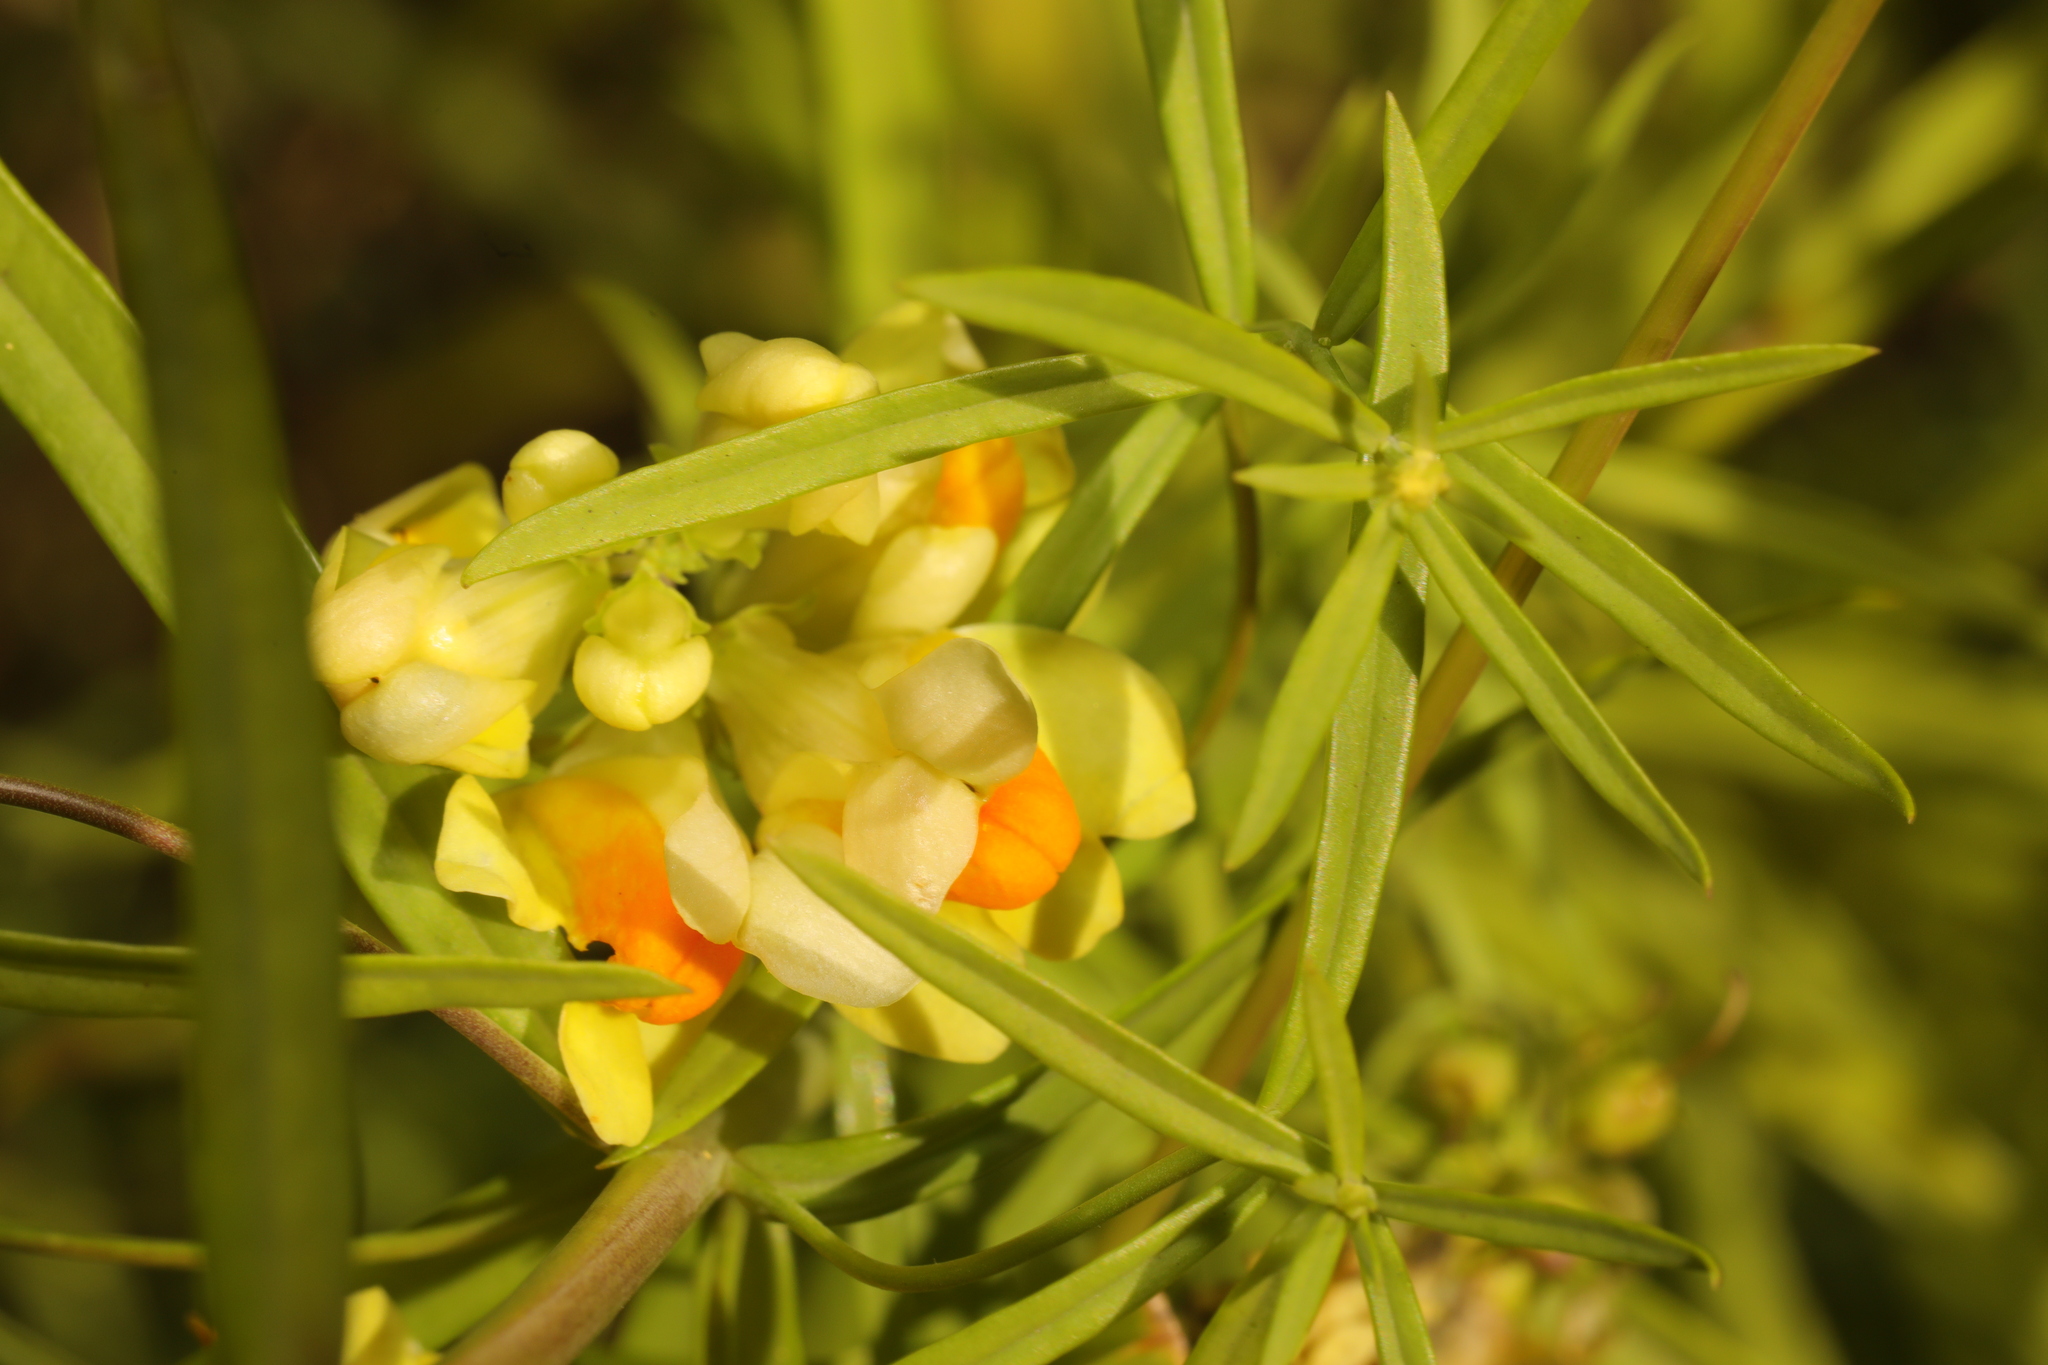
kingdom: Plantae
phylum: Tracheophyta
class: Magnoliopsida
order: Lamiales
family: Plantaginaceae
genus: Linaria
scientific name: Linaria vulgaris
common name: Butter and eggs
